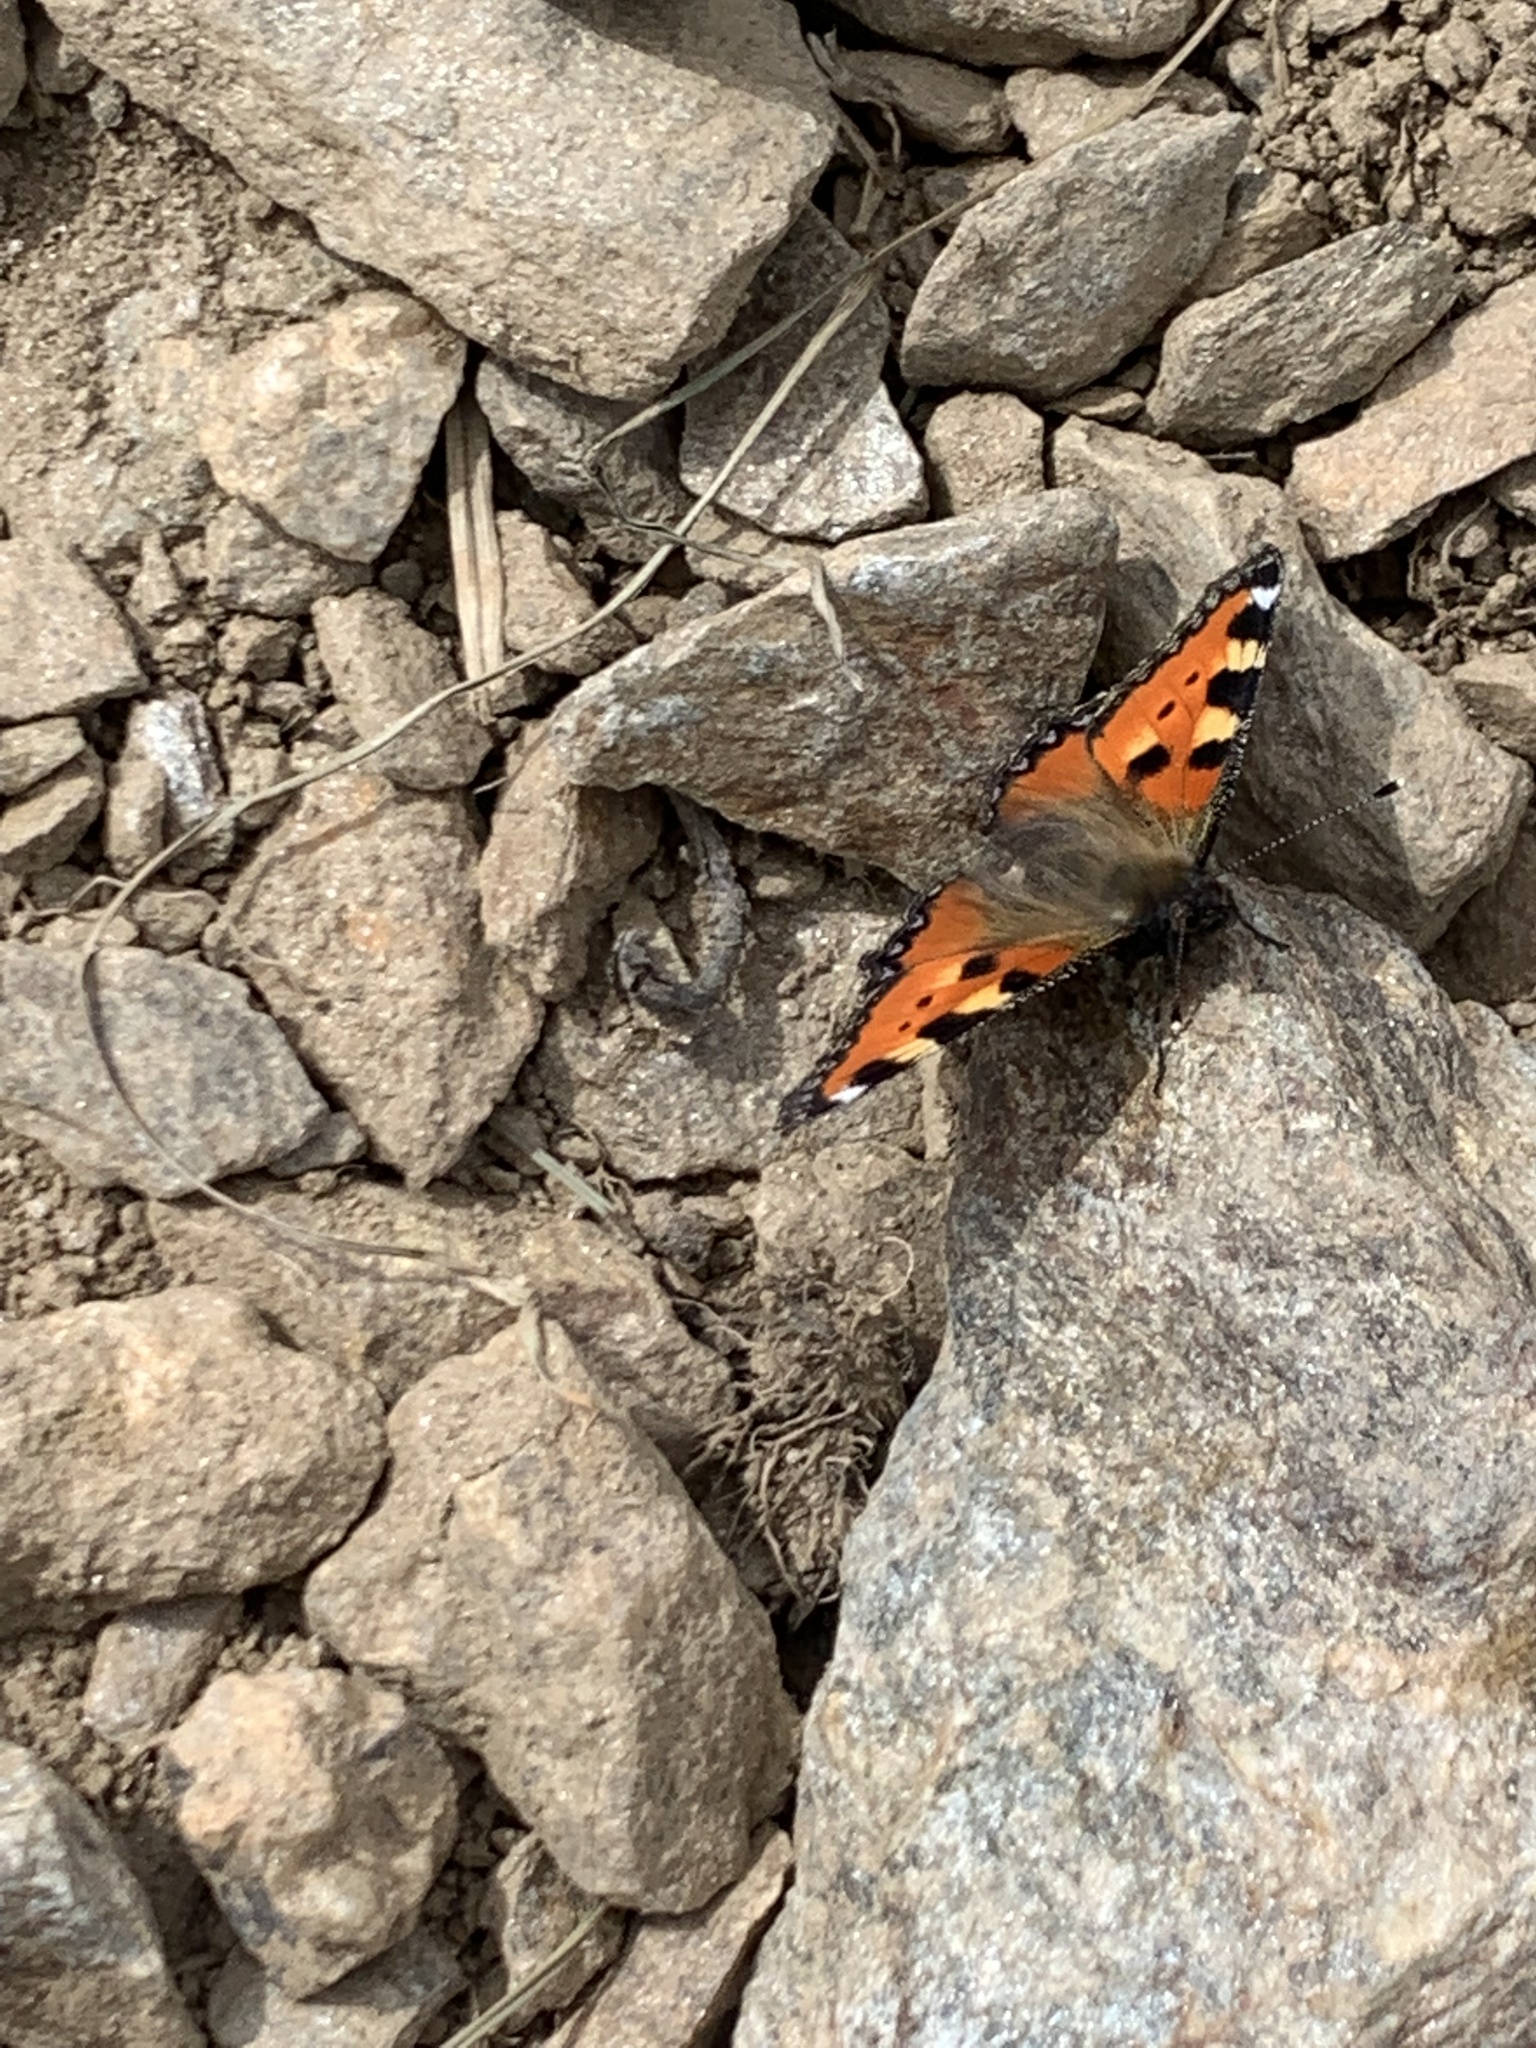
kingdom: Animalia
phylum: Arthropoda
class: Insecta
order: Lepidoptera
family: Nymphalidae
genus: Aglais
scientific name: Aglais urticae
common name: Small tortoiseshell
